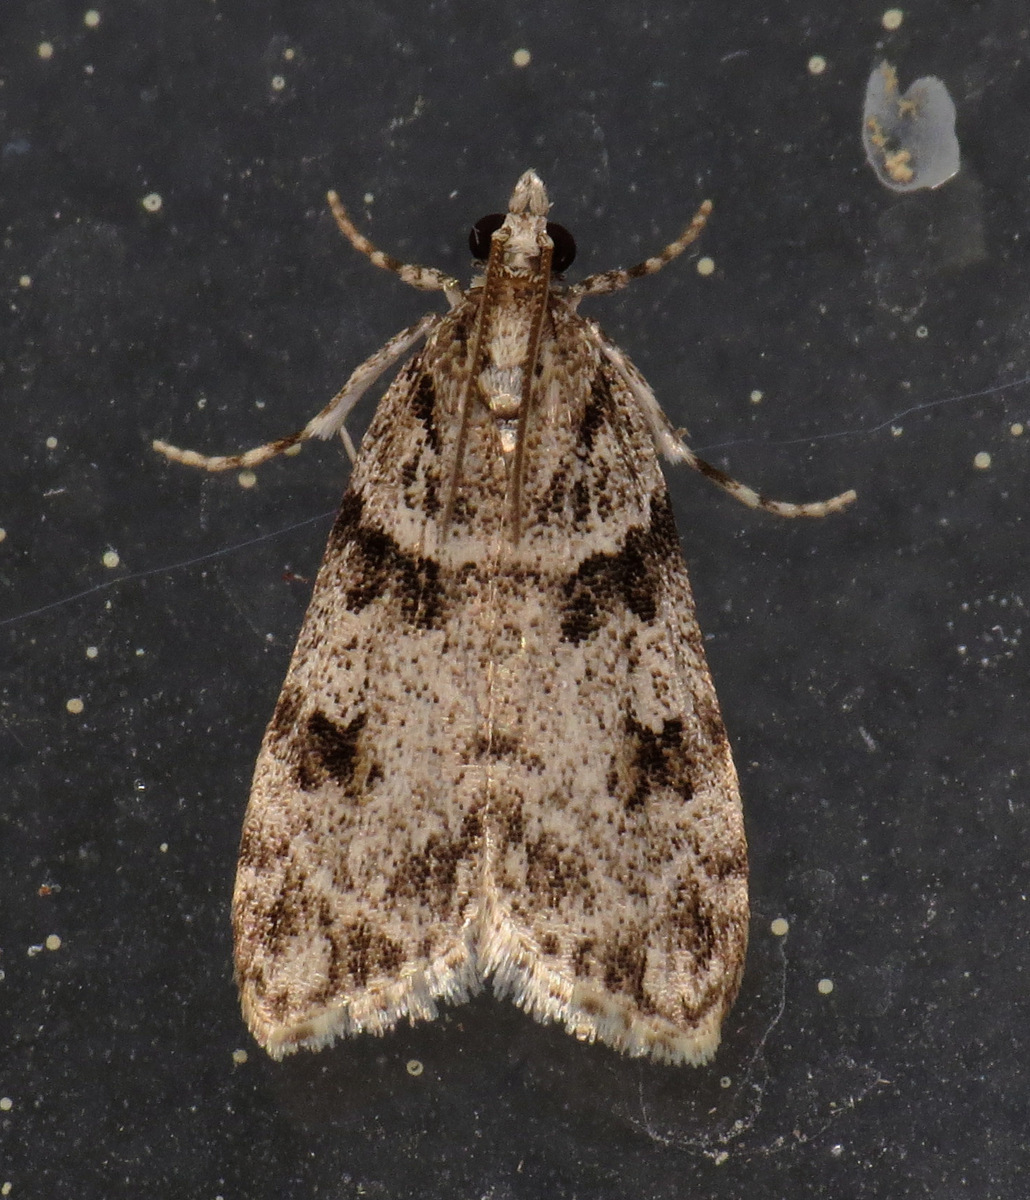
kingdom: Animalia
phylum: Arthropoda
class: Insecta
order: Lepidoptera
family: Crambidae
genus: Scoparia
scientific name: Scoparia biplagialis
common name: Double-striped scoparia moth
